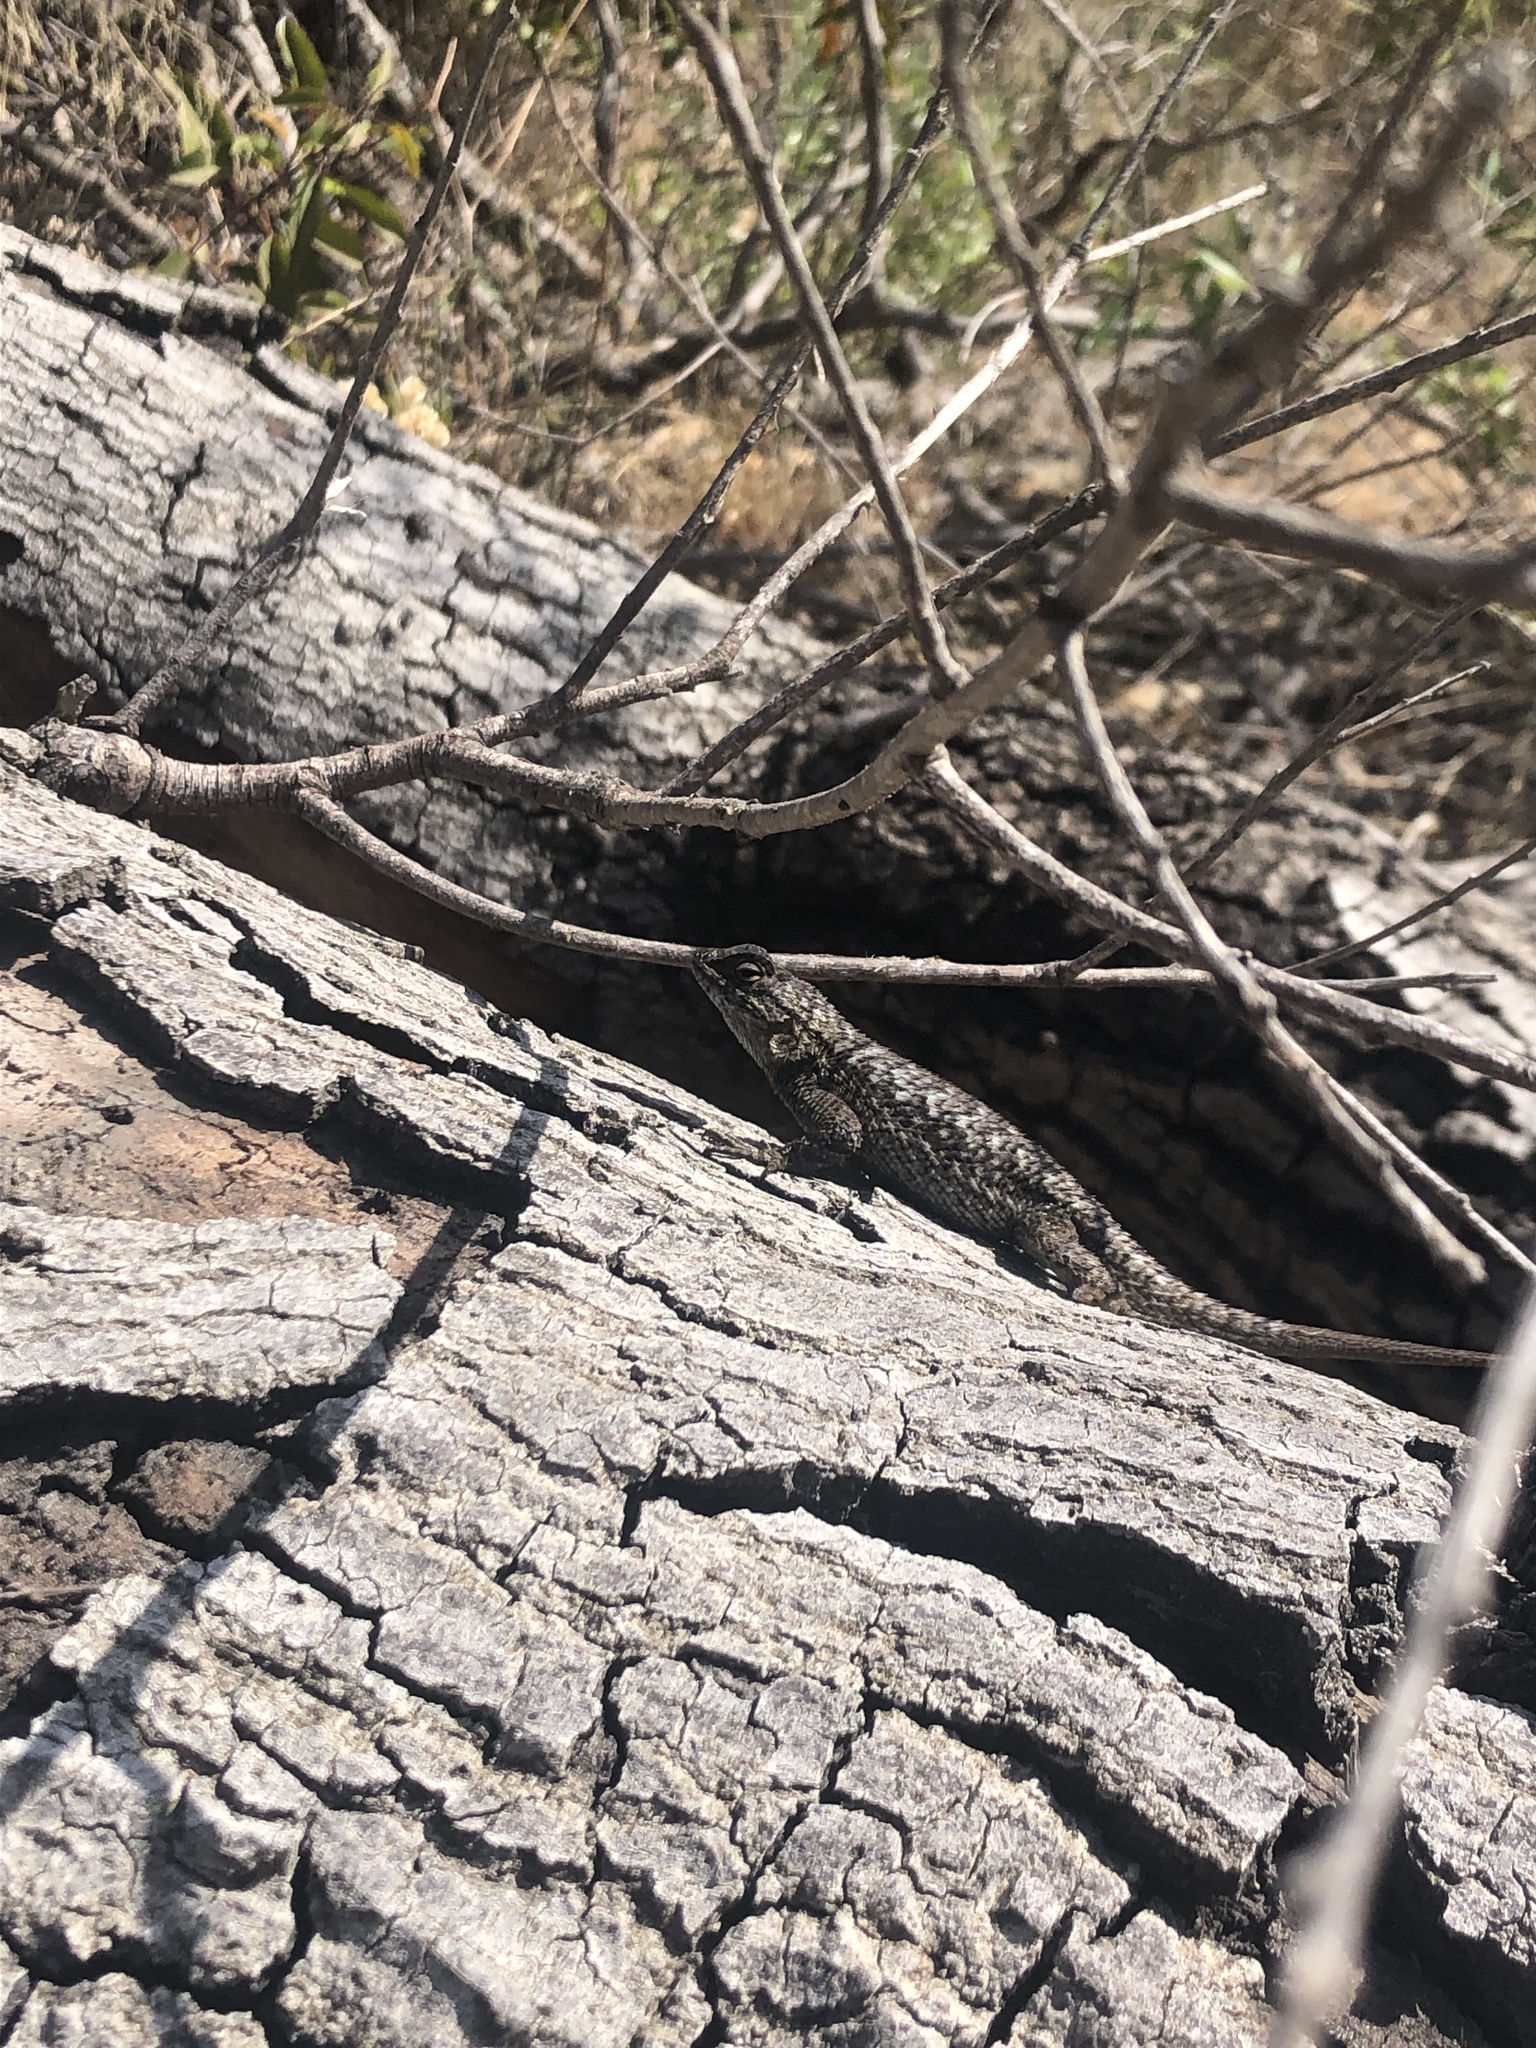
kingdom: Animalia
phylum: Chordata
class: Squamata
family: Phrynosomatidae
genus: Sceloporus
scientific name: Sceloporus occidentalis
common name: Western fence lizard
